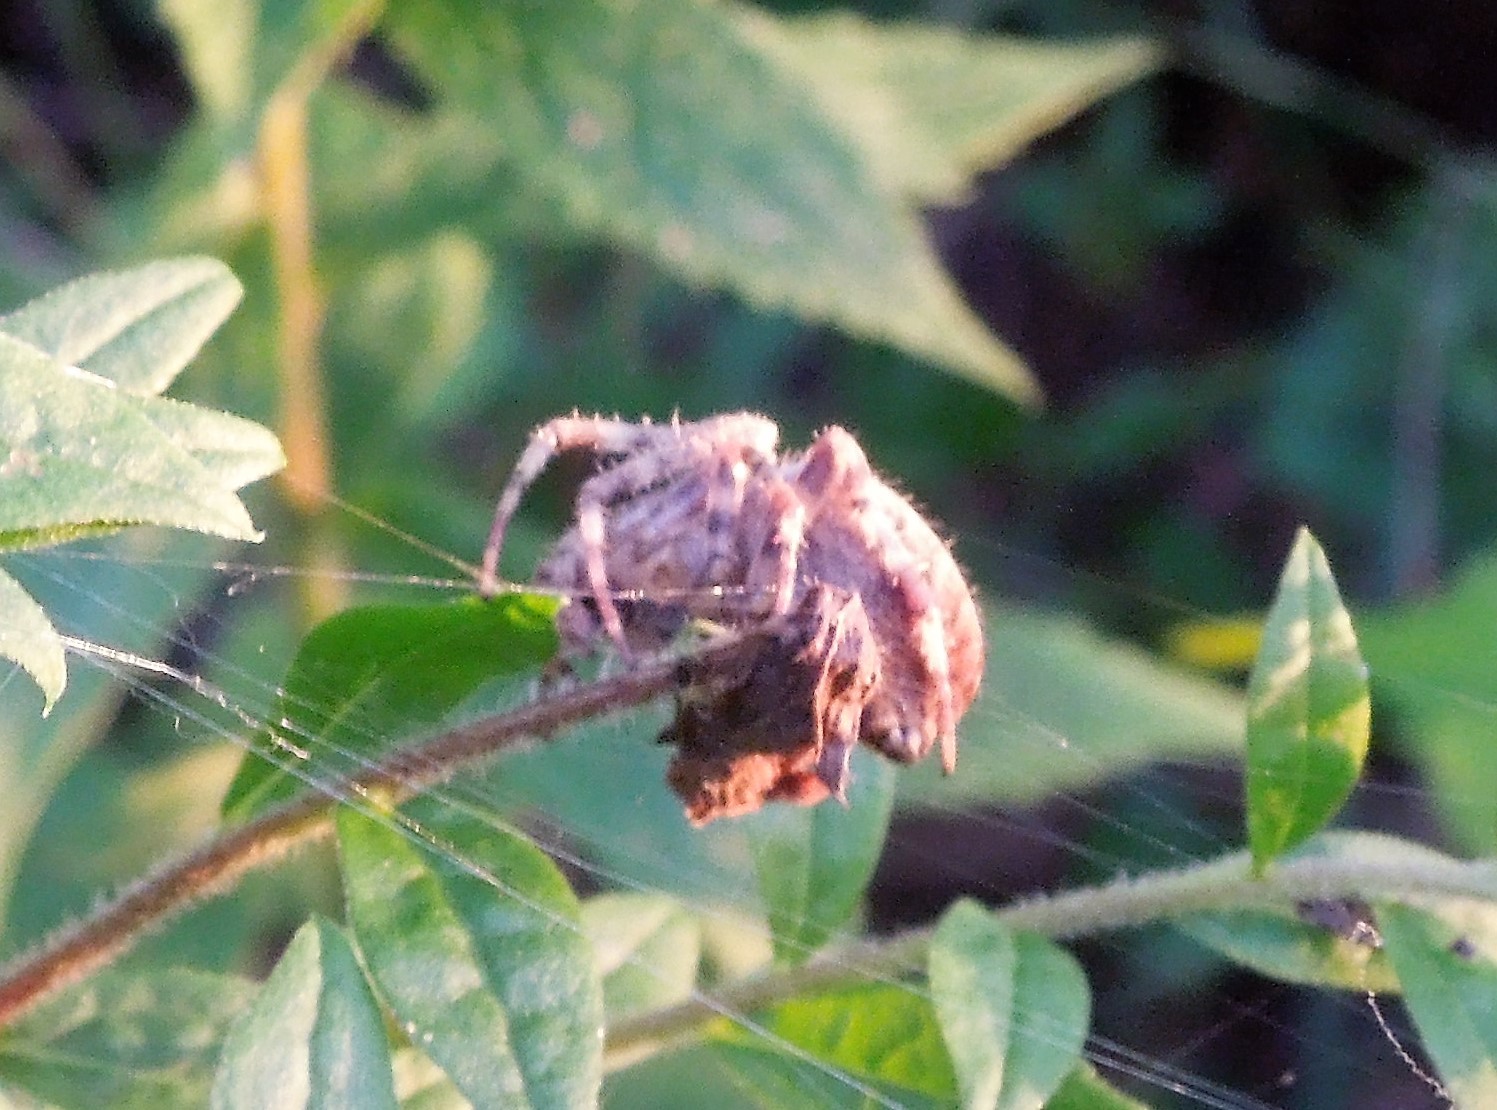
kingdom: Animalia
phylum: Arthropoda
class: Arachnida
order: Araneae
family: Araneidae
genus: Araneus
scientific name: Araneus diadematus
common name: Cross orbweaver
